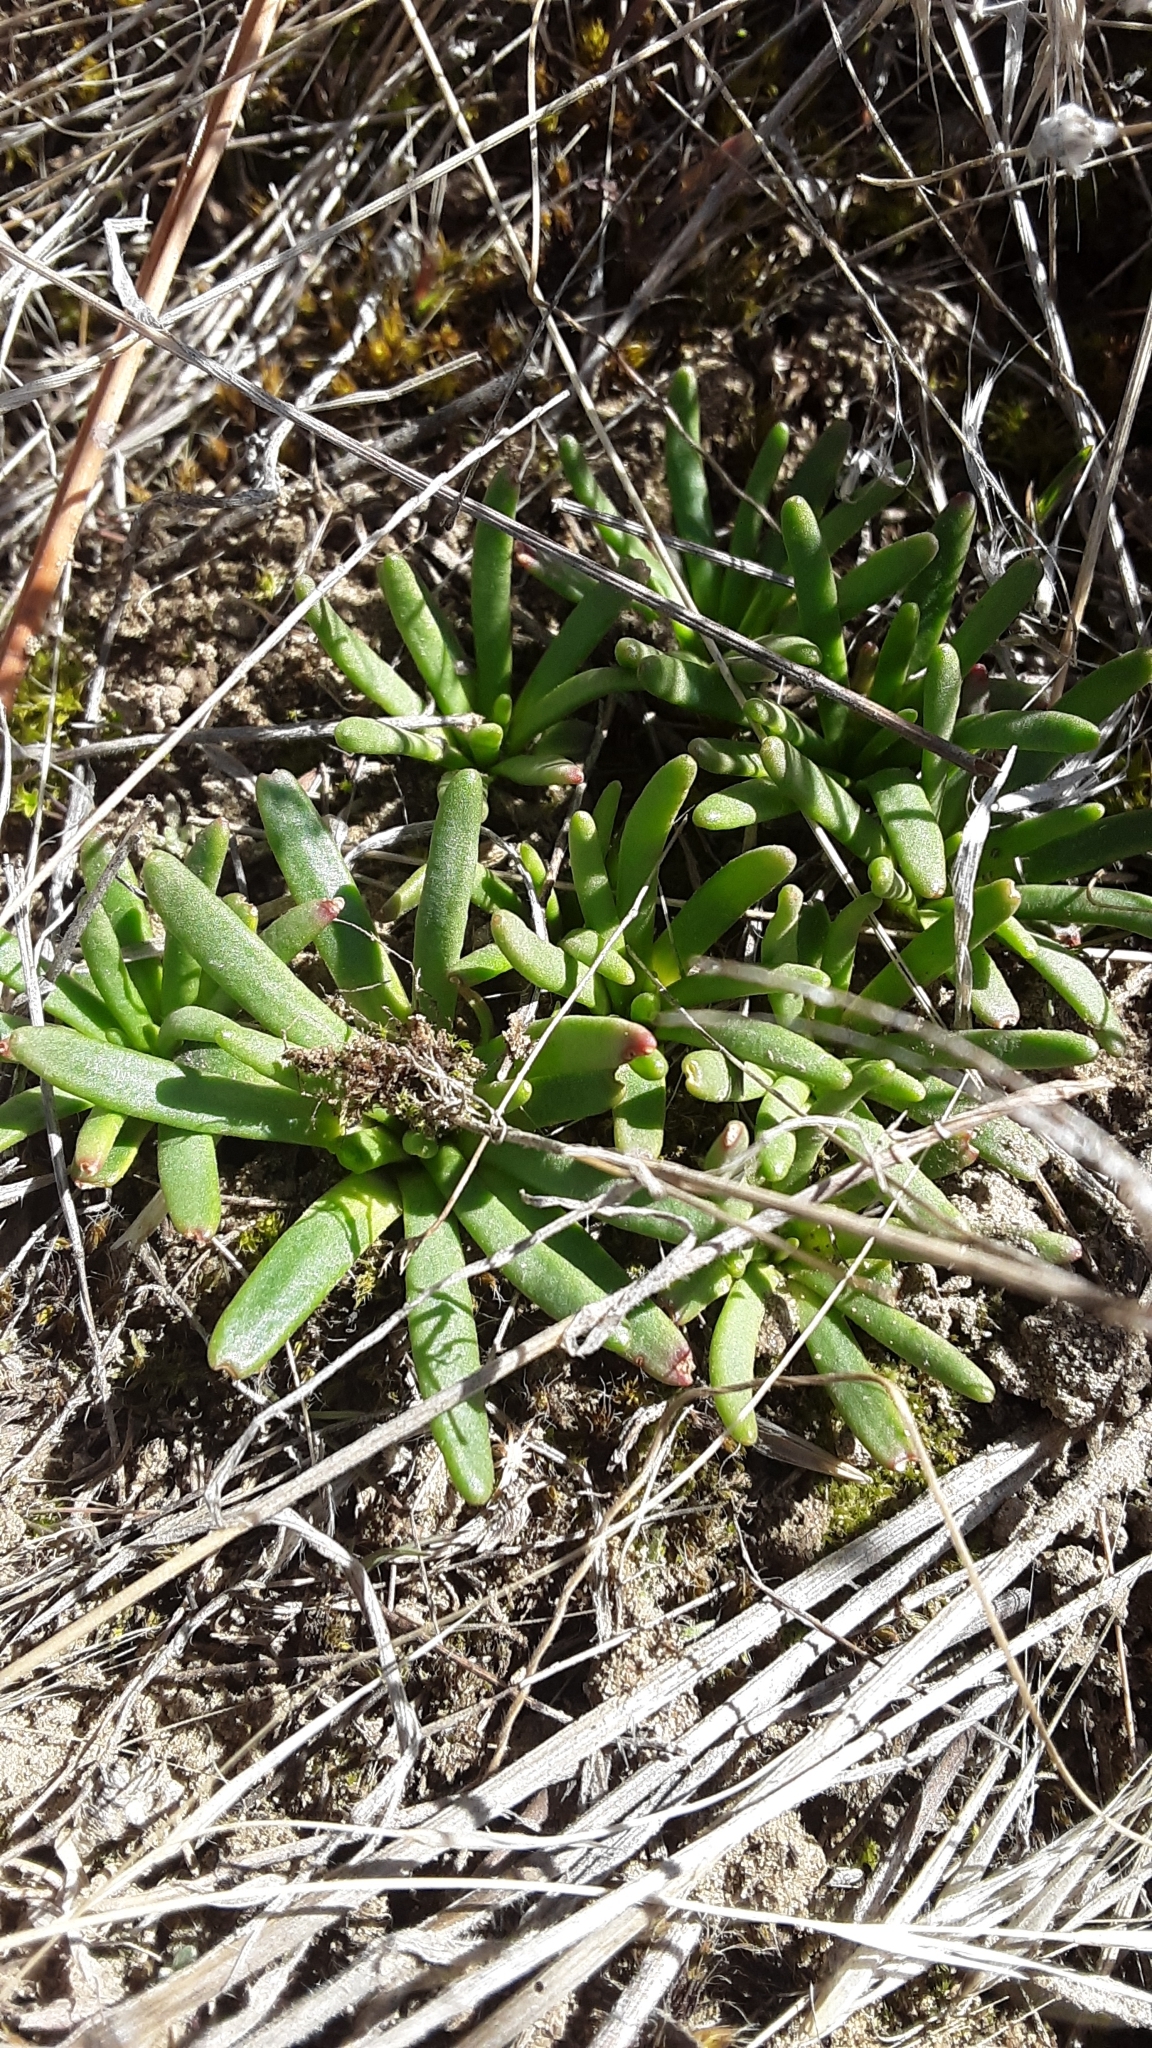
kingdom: Plantae
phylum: Tracheophyta
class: Magnoliopsida
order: Caryophyllales
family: Montiaceae
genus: Lewisia
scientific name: Lewisia rediviva
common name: Bitter-root
